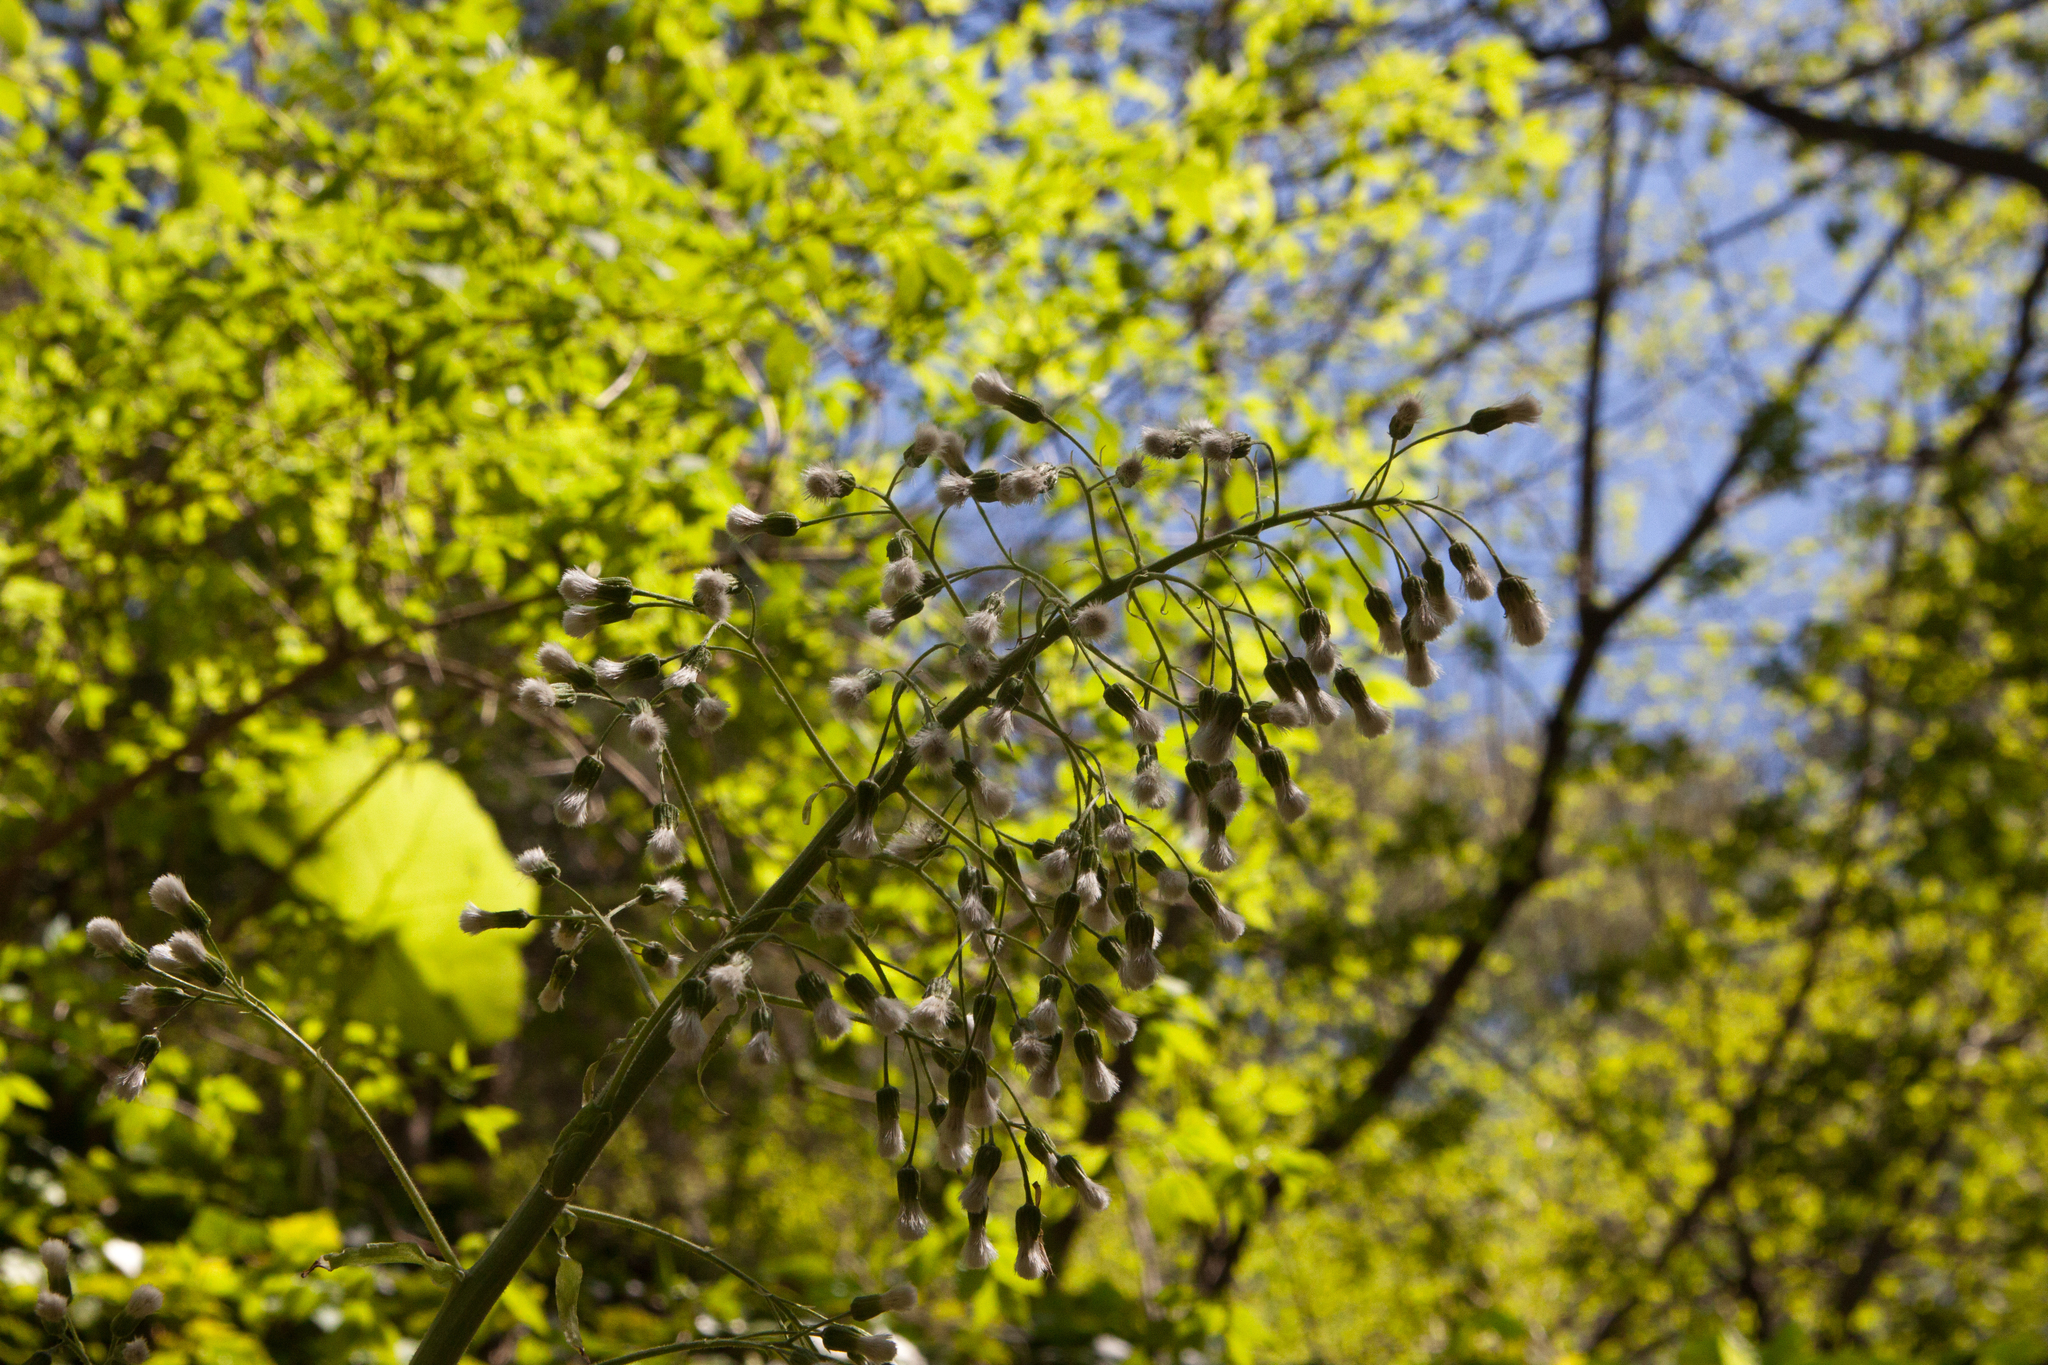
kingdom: Plantae
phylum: Tracheophyta
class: Magnoliopsida
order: Asterales
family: Asteraceae
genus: Petasites
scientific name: Petasites albus
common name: White butterbur
